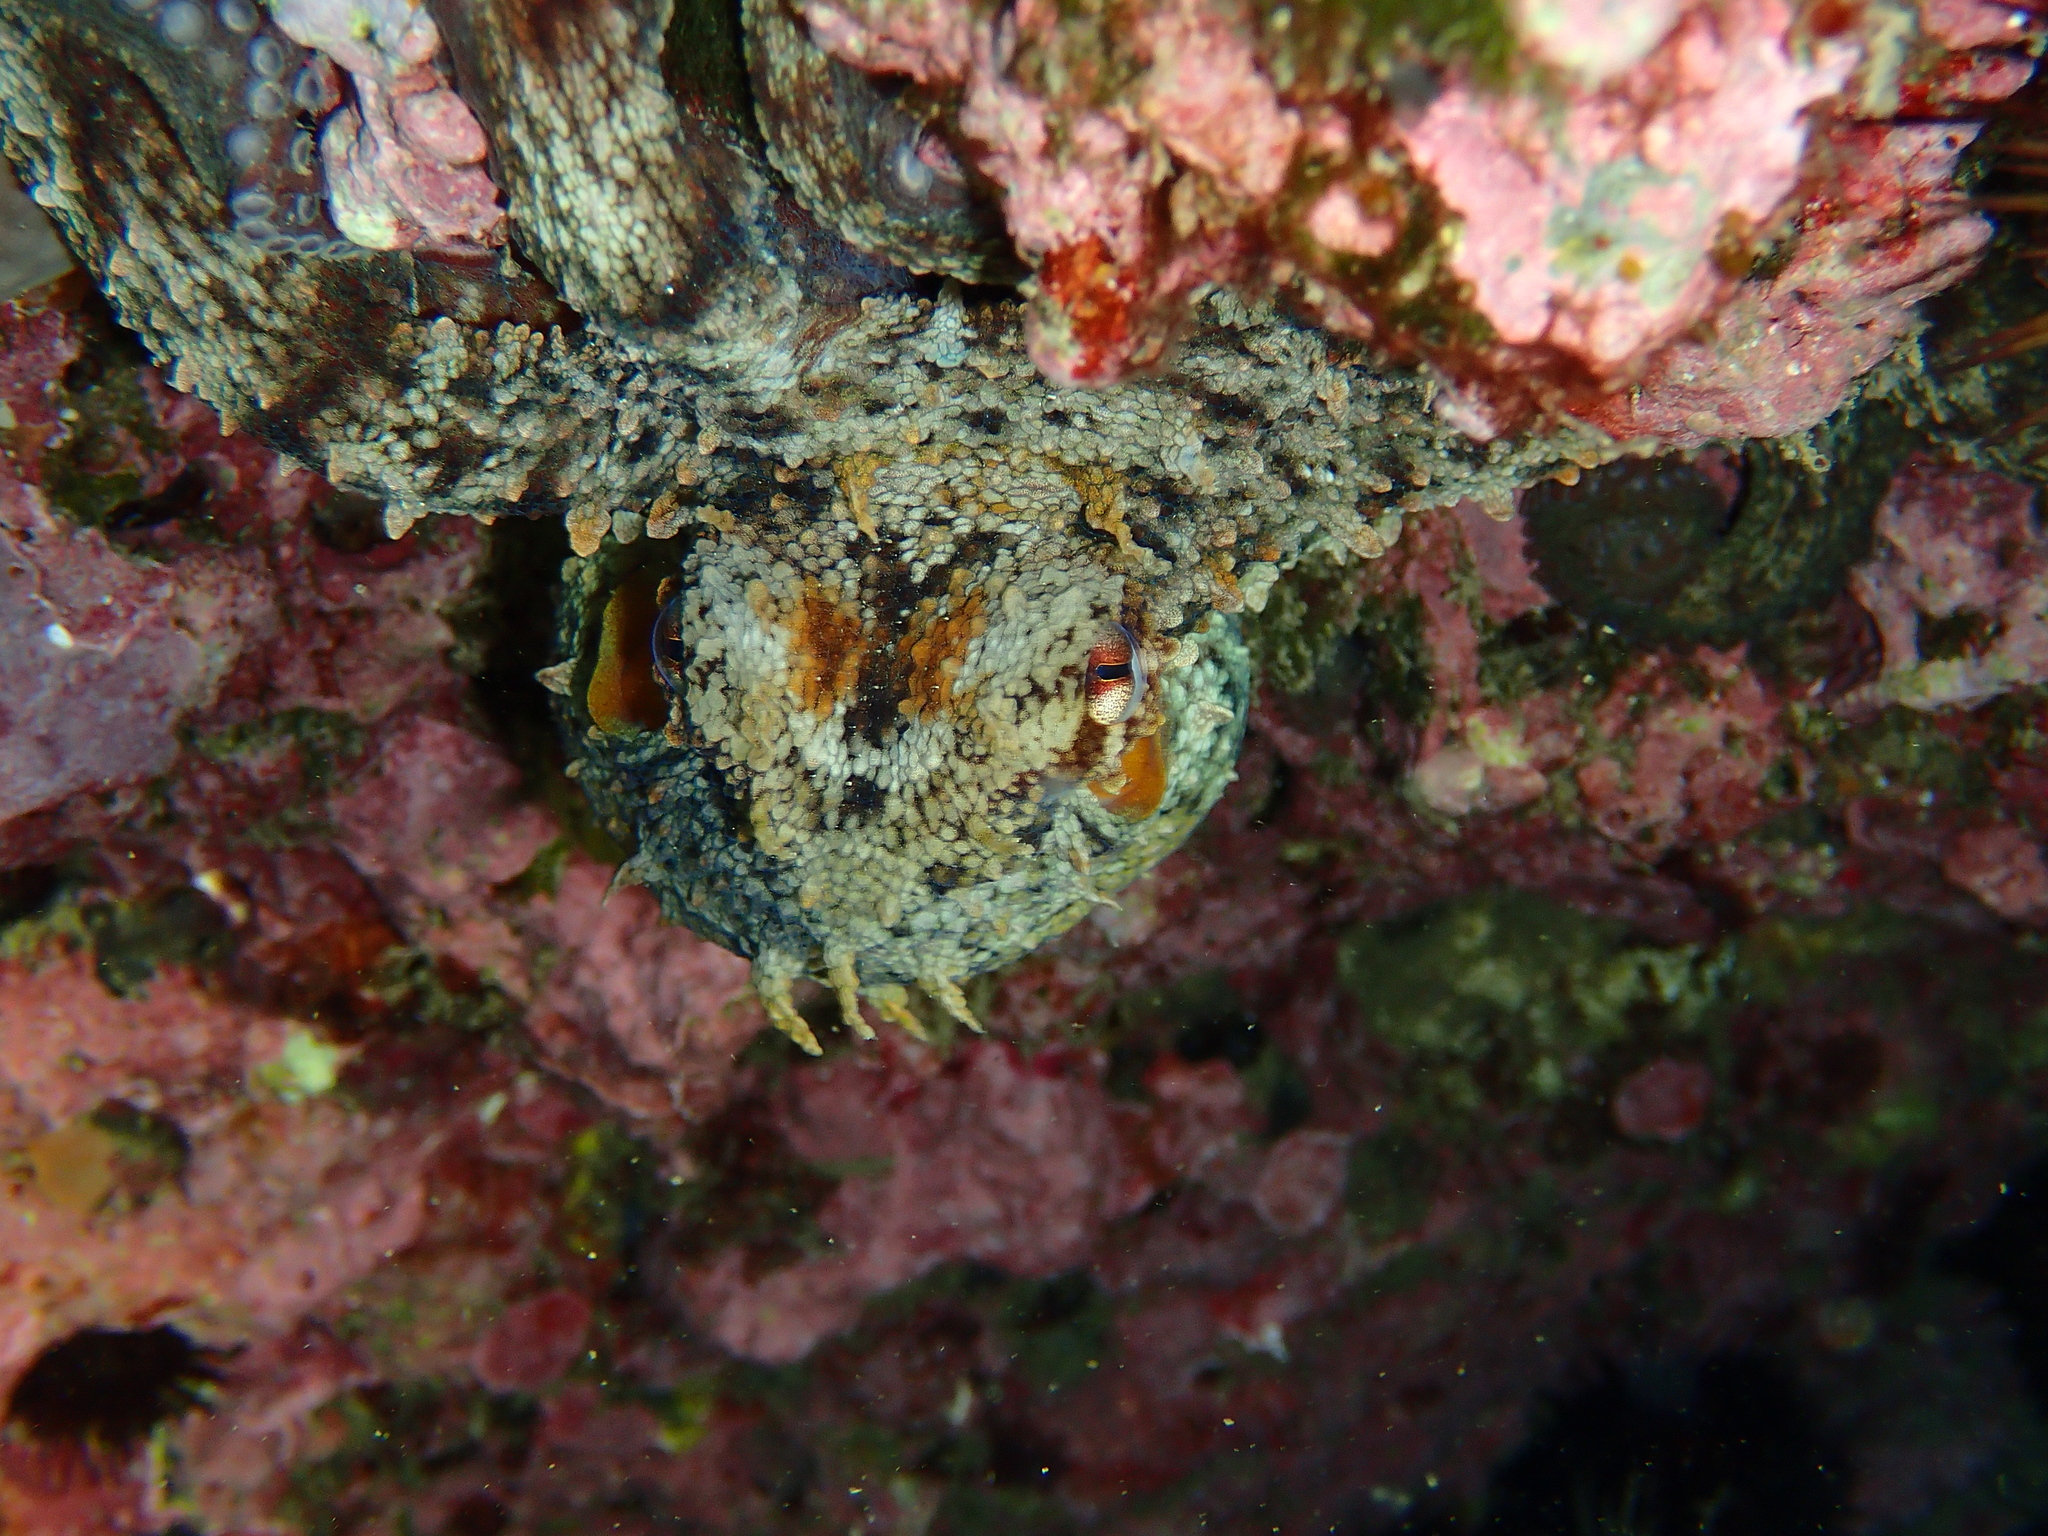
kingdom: Animalia
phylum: Mollusca
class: Cephalopoda
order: Octopoda
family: Octopodidae
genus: Octopus
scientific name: Octopus vulgaris
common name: Common octopus
